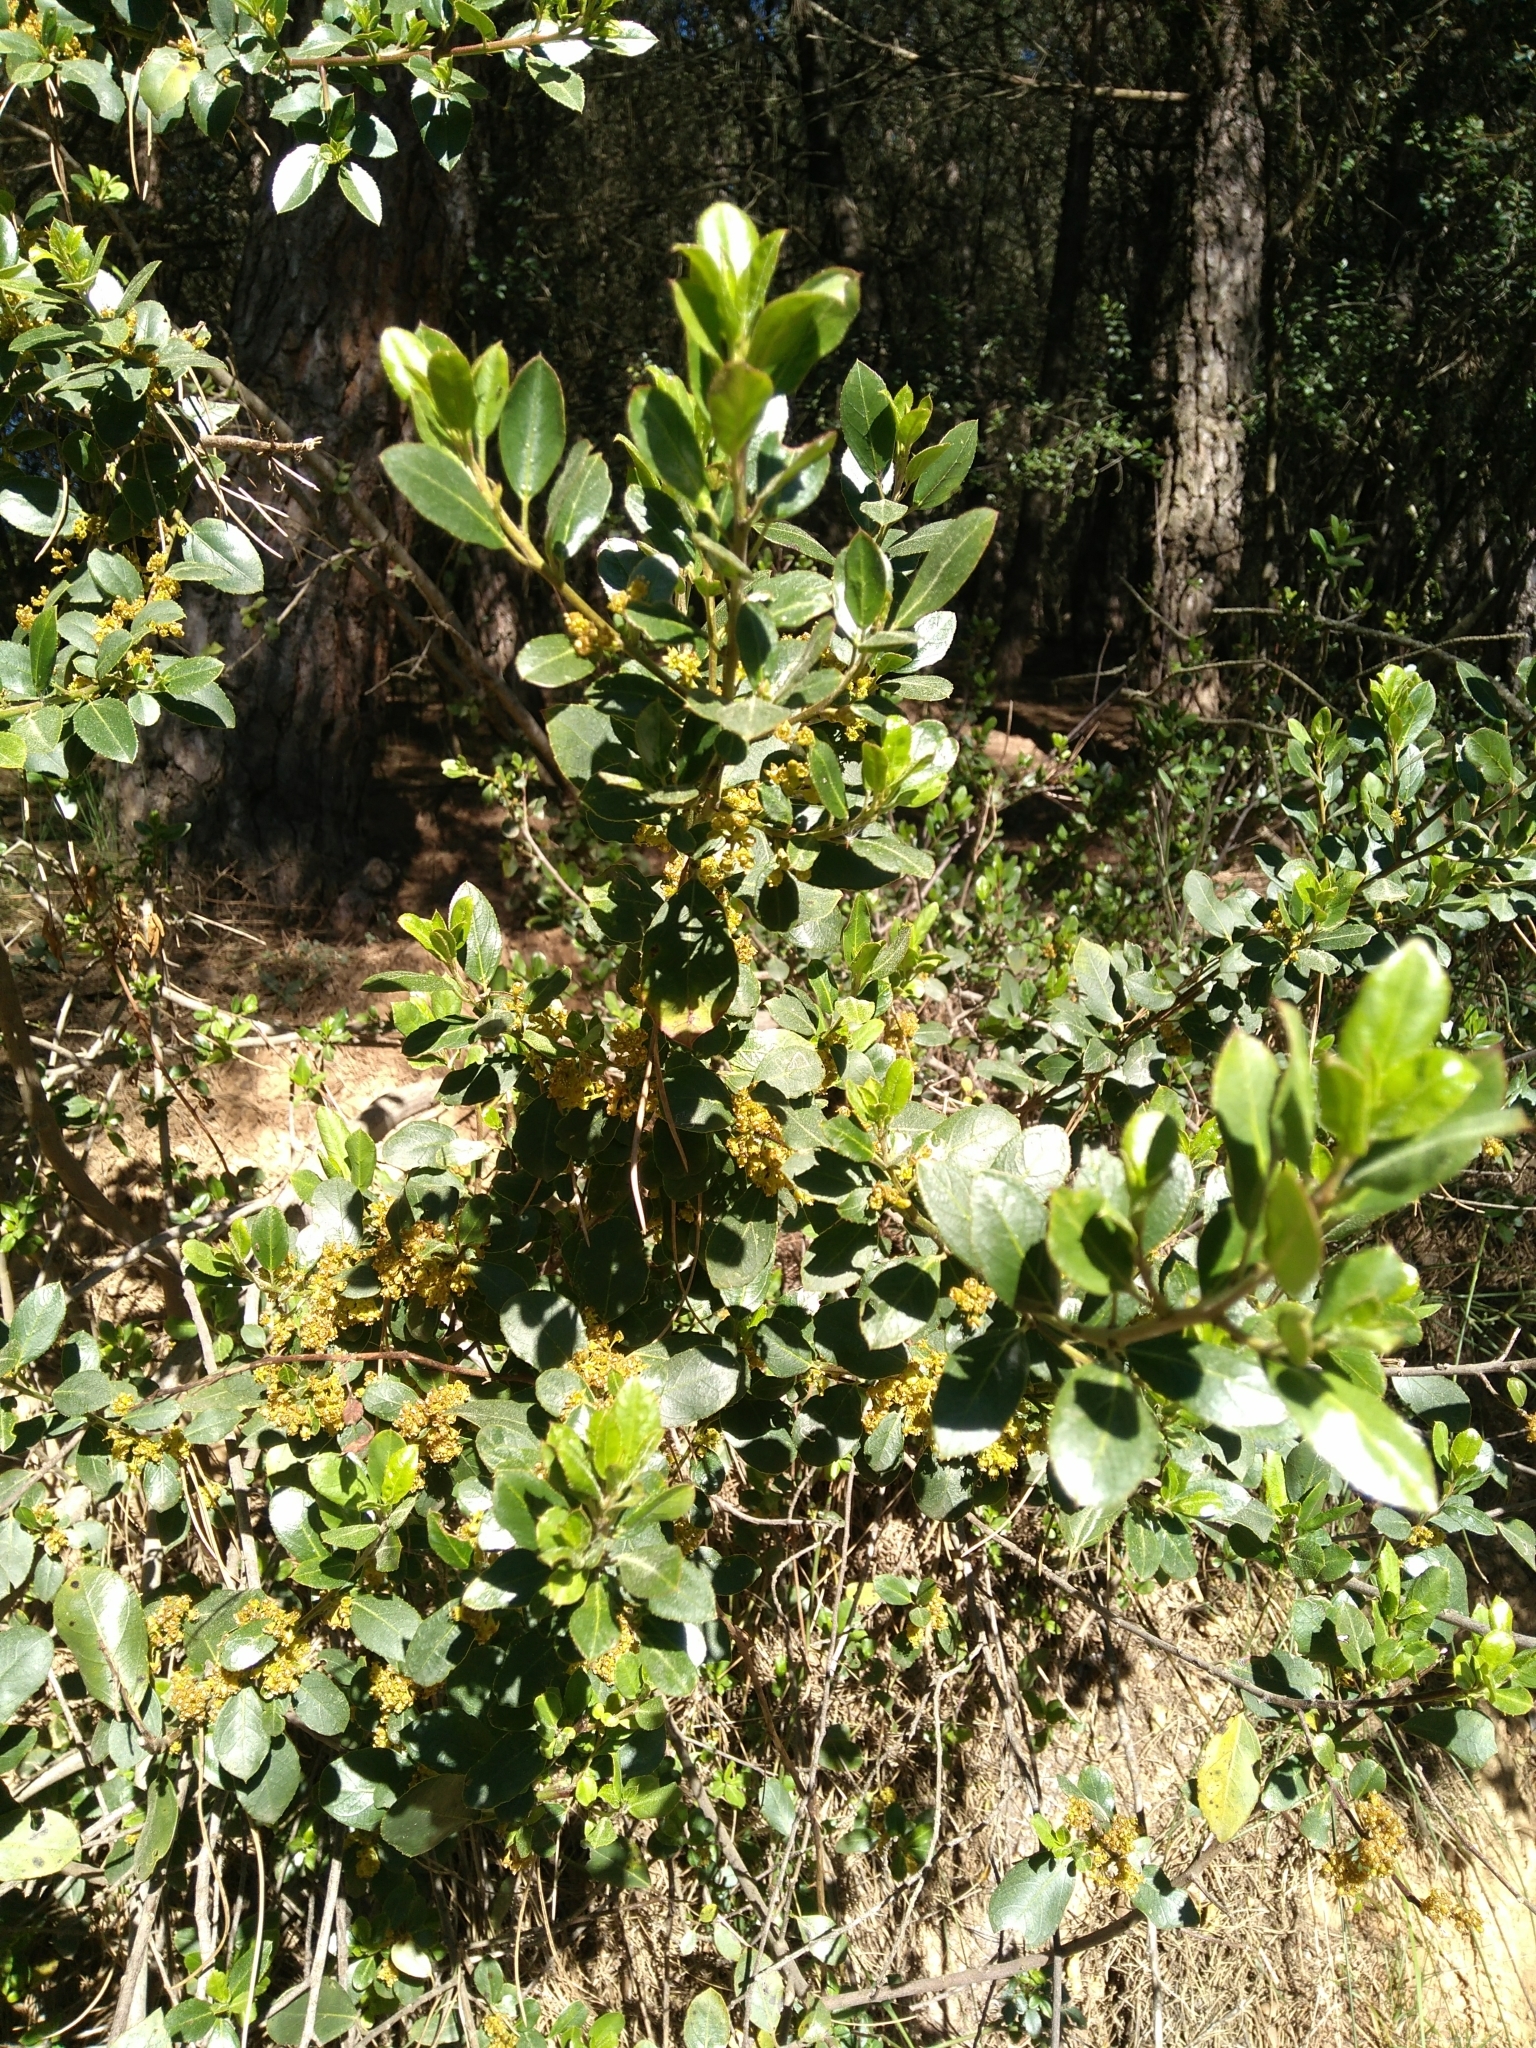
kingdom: Plantae
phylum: Tracheophyta
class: Magnoliopsida
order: Rosales
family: Rhamnaceae
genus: Rhamnus
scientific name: Rhamnus alaternus
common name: Mediterranean buckthorn
